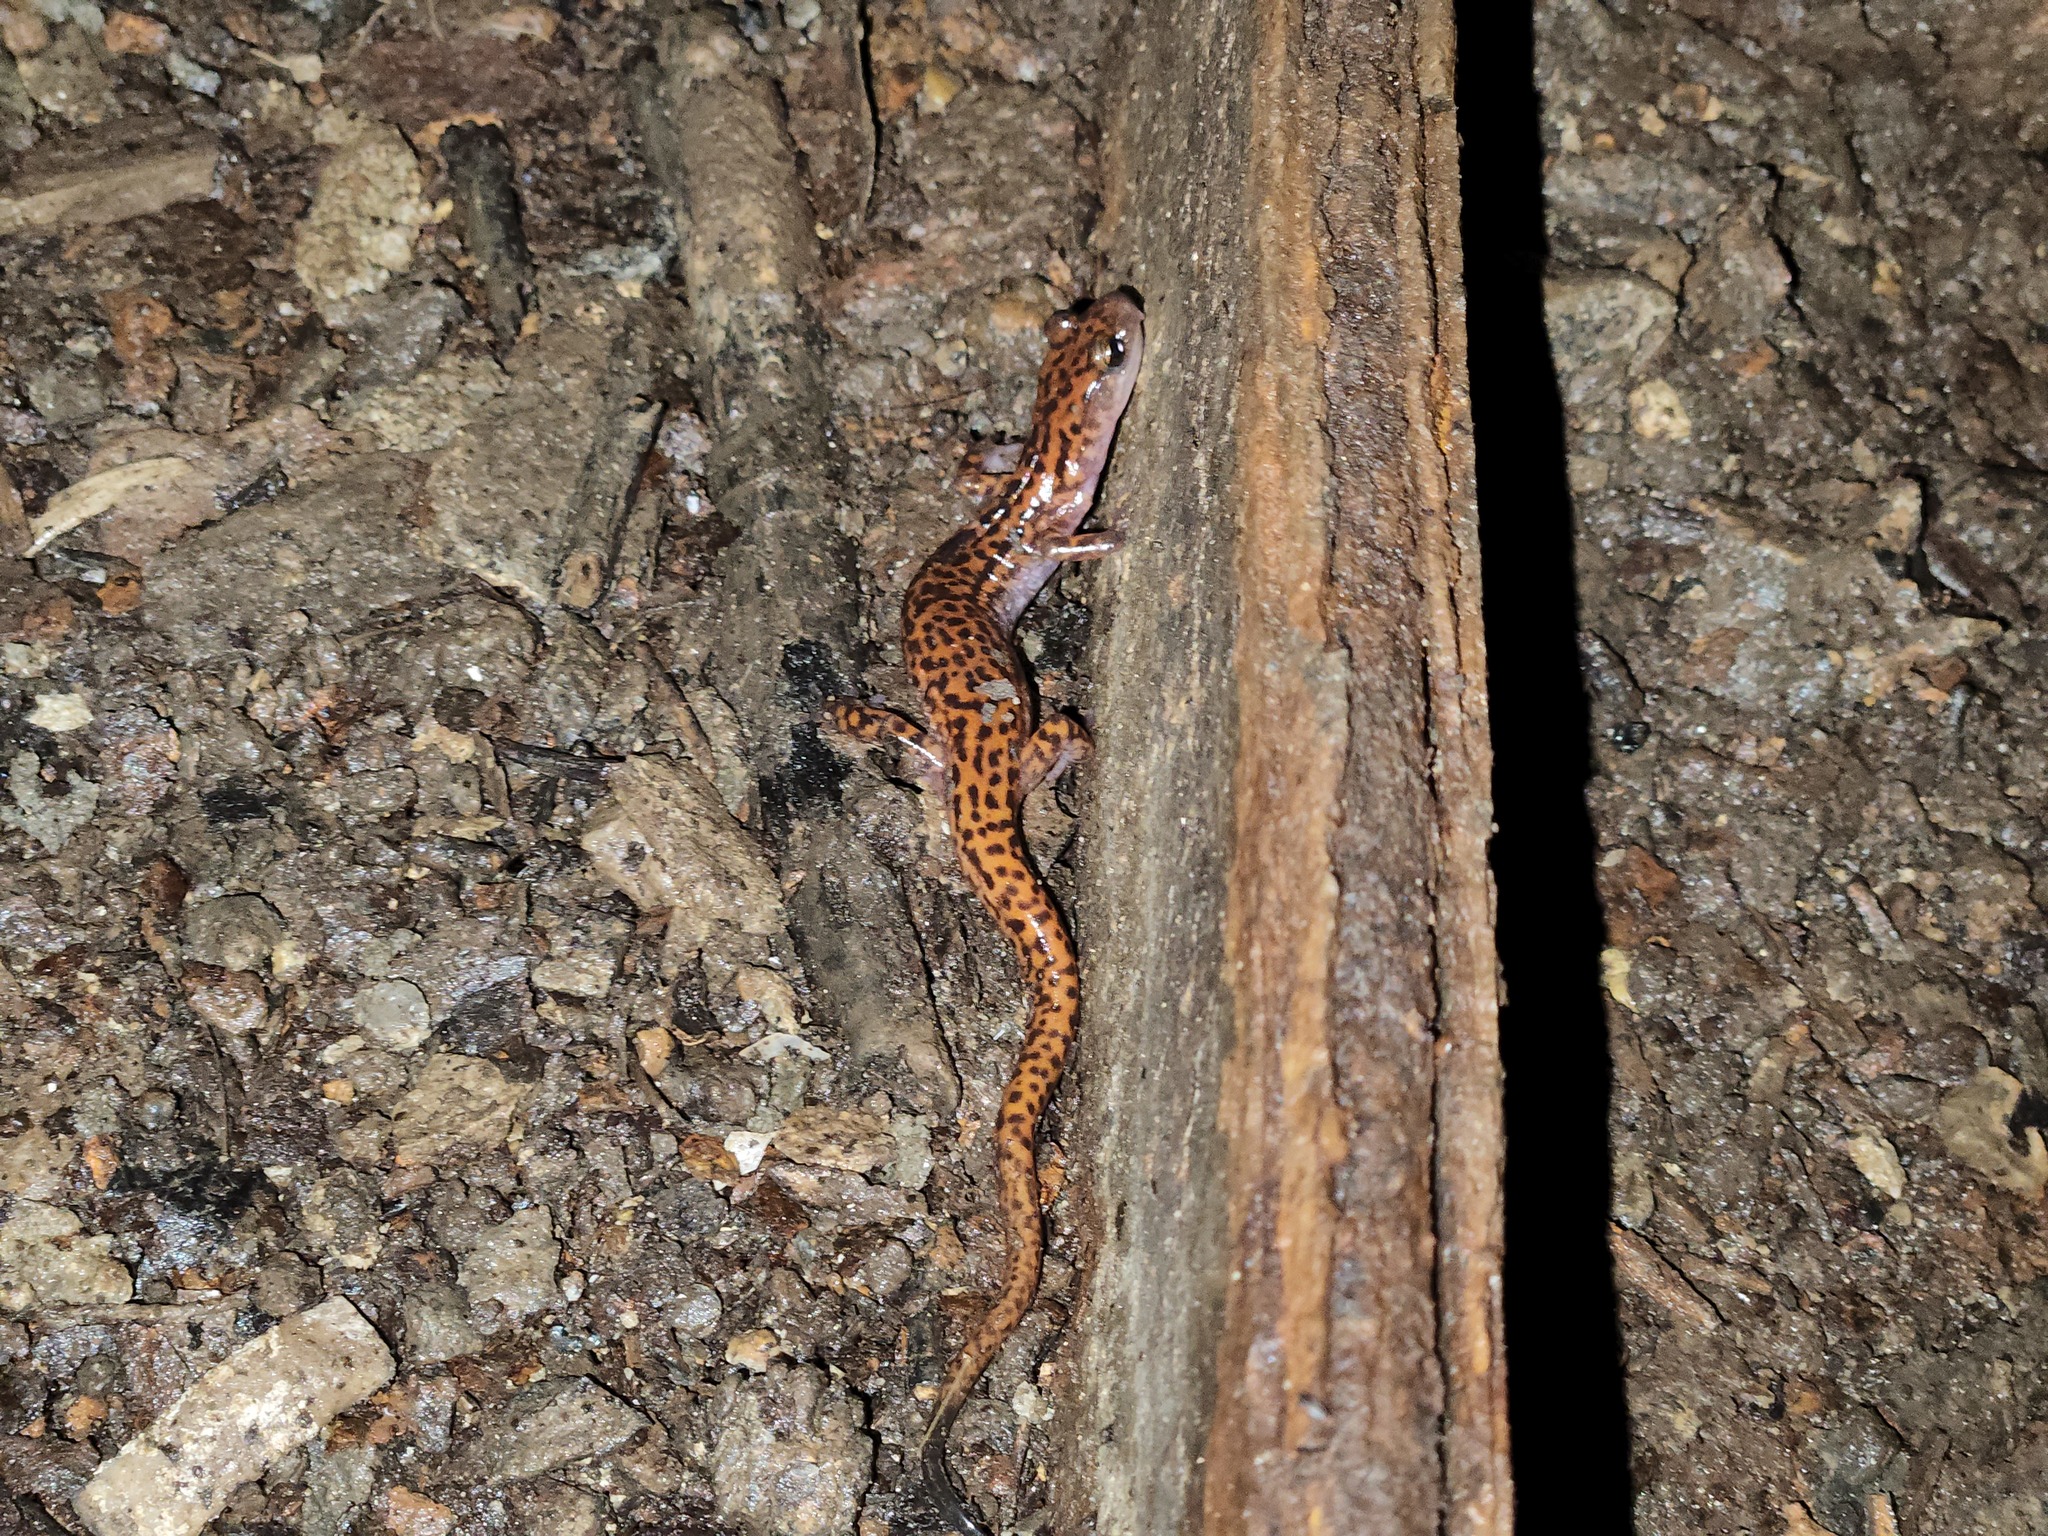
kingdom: Animalia
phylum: Chordata
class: Amphibia
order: Caudata
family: Plethodontidae
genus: Eurycea
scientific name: Eurycea lucifuga
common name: Cave salamander
